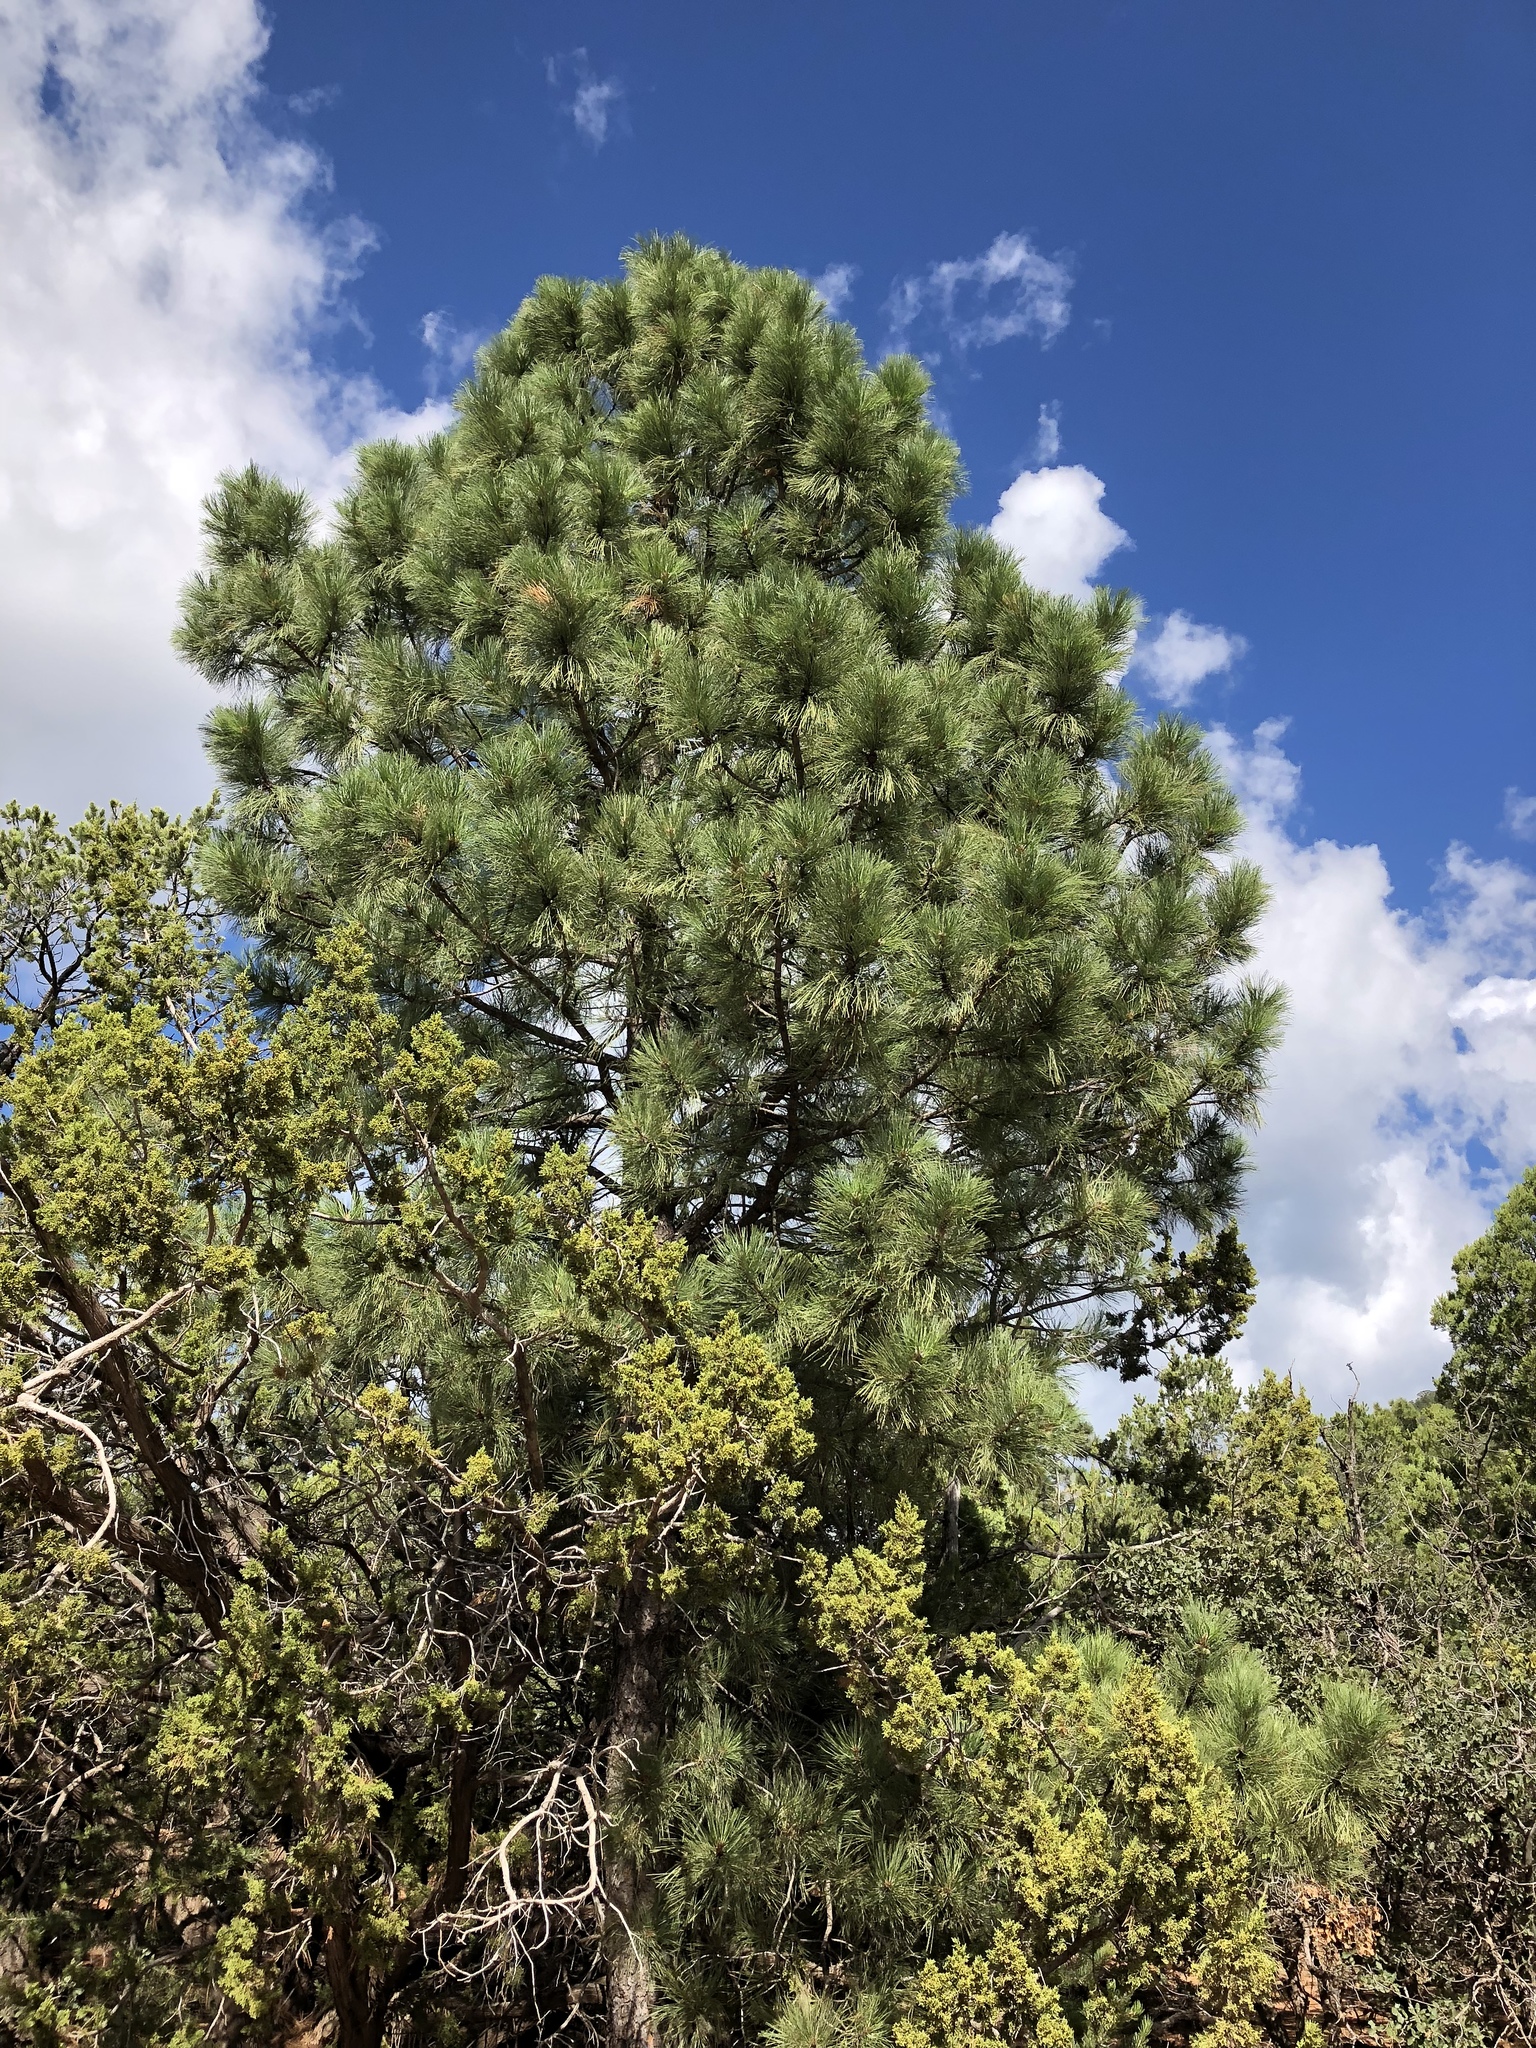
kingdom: Plantae
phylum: Tracheophyta
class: Pinopsida
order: Pinales
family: Pinaceae
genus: Pinus
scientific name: Pinus ponderosa
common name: Western yellow-pine
